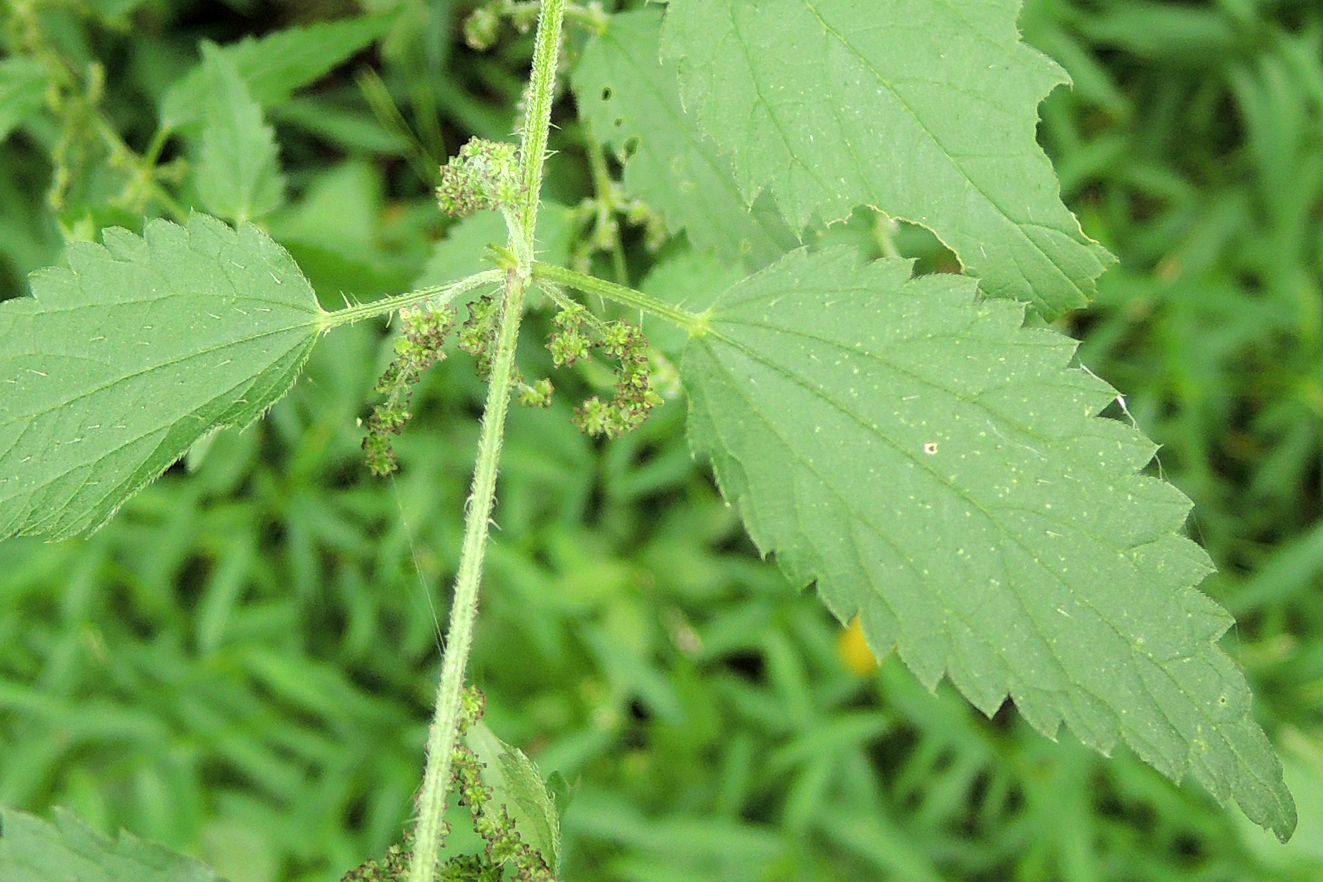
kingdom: Plantae
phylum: Tracheophyta
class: Magnoliopsida
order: Rosales
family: Urticaceae
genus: Urtica
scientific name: Urtica dioica
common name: Common nettle
